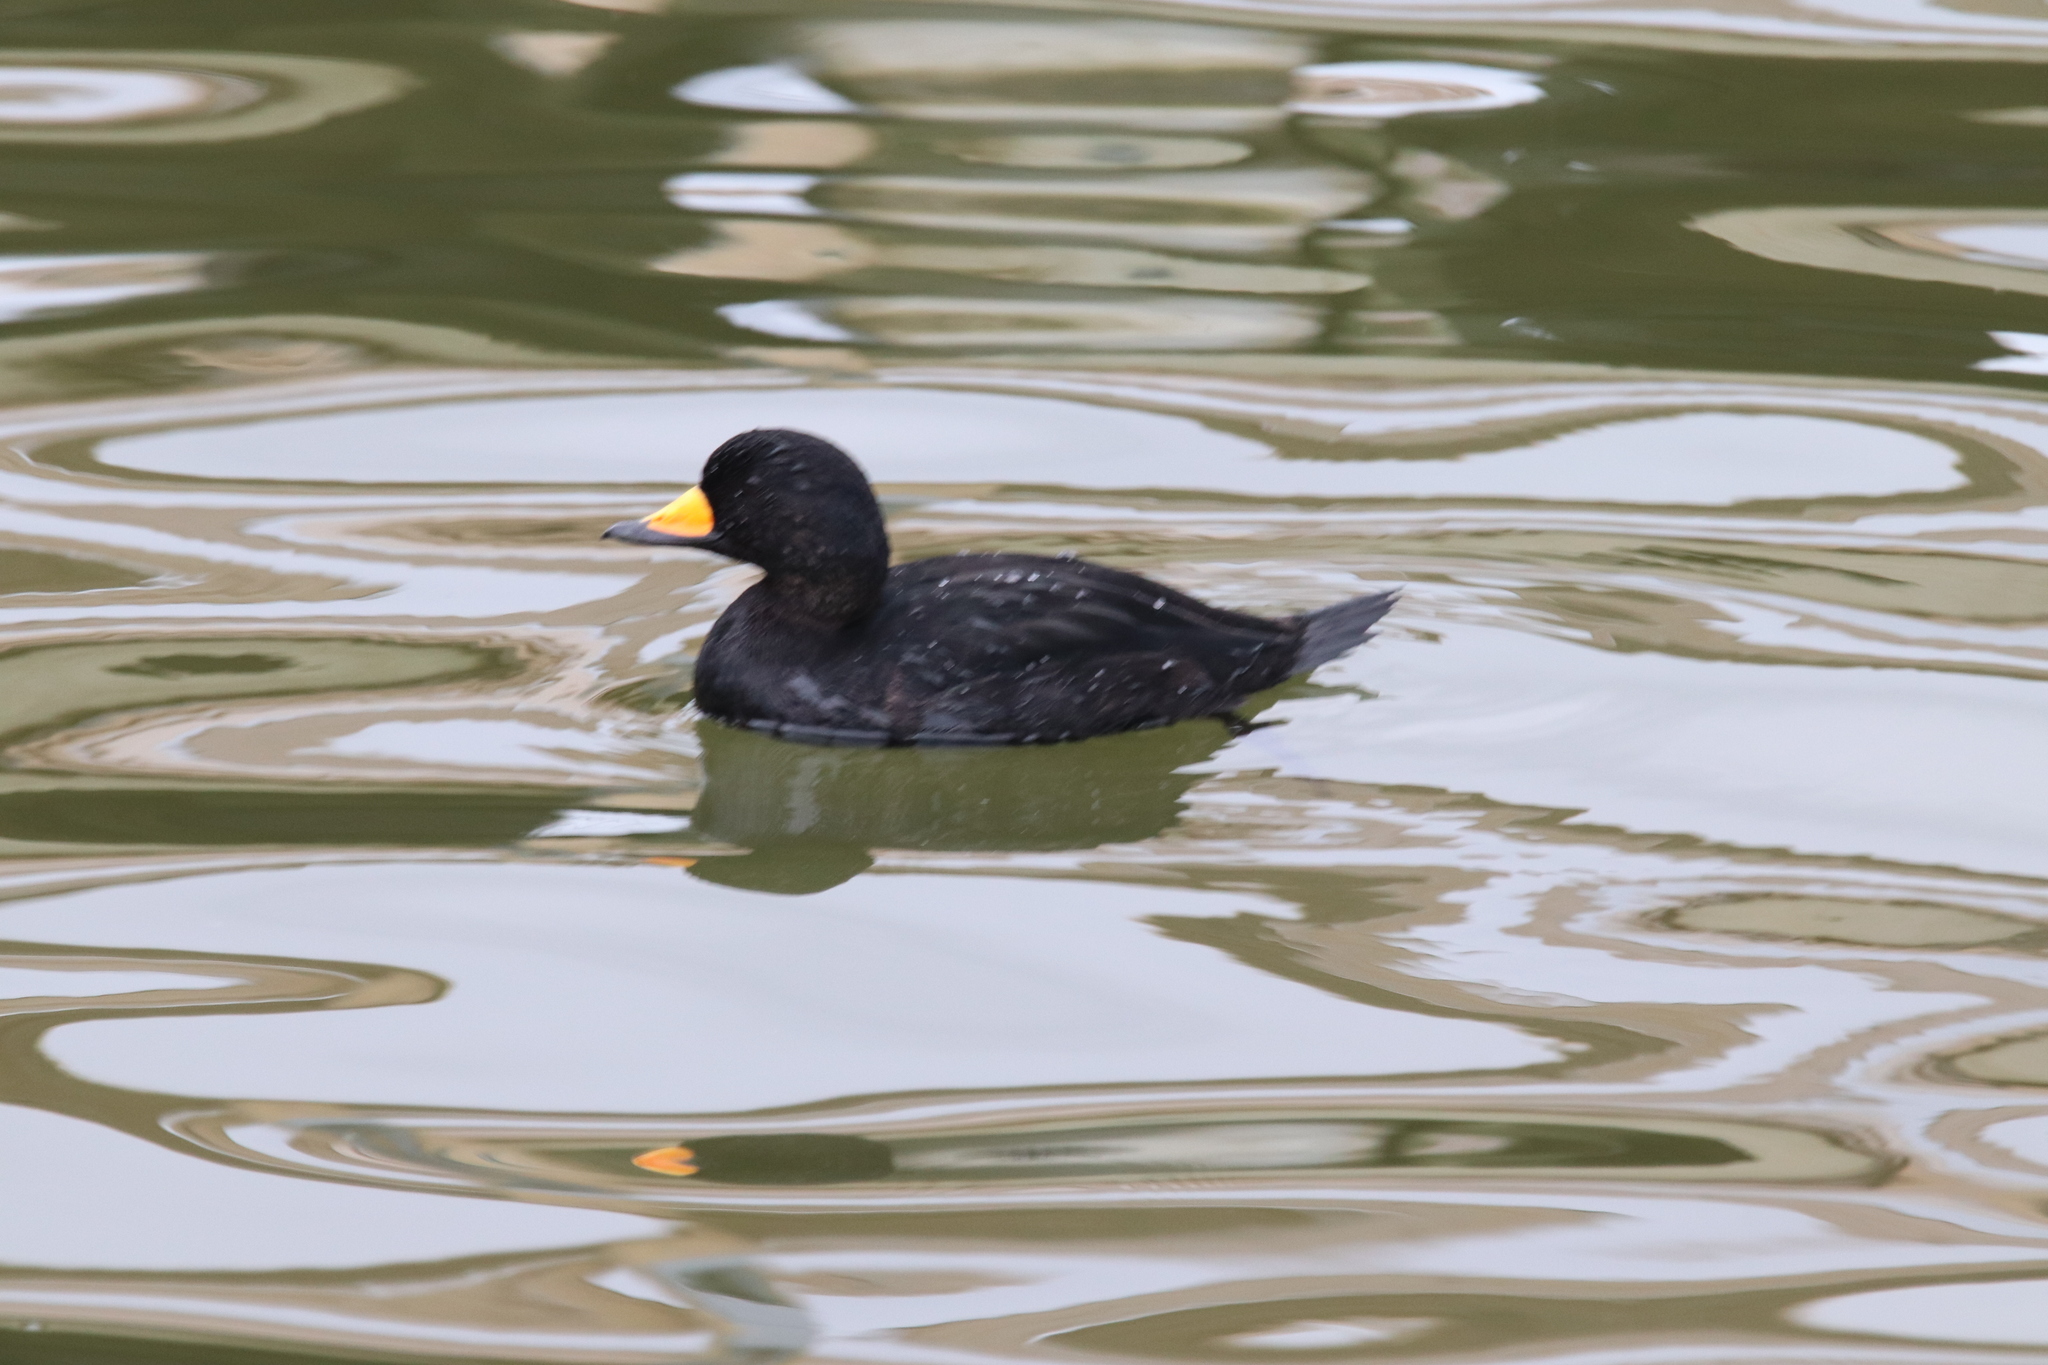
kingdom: Animalia
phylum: Chordata
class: Aves
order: Anseriformes
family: Anatidae
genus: Melanitta
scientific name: Melanitta americana
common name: Black scoter
